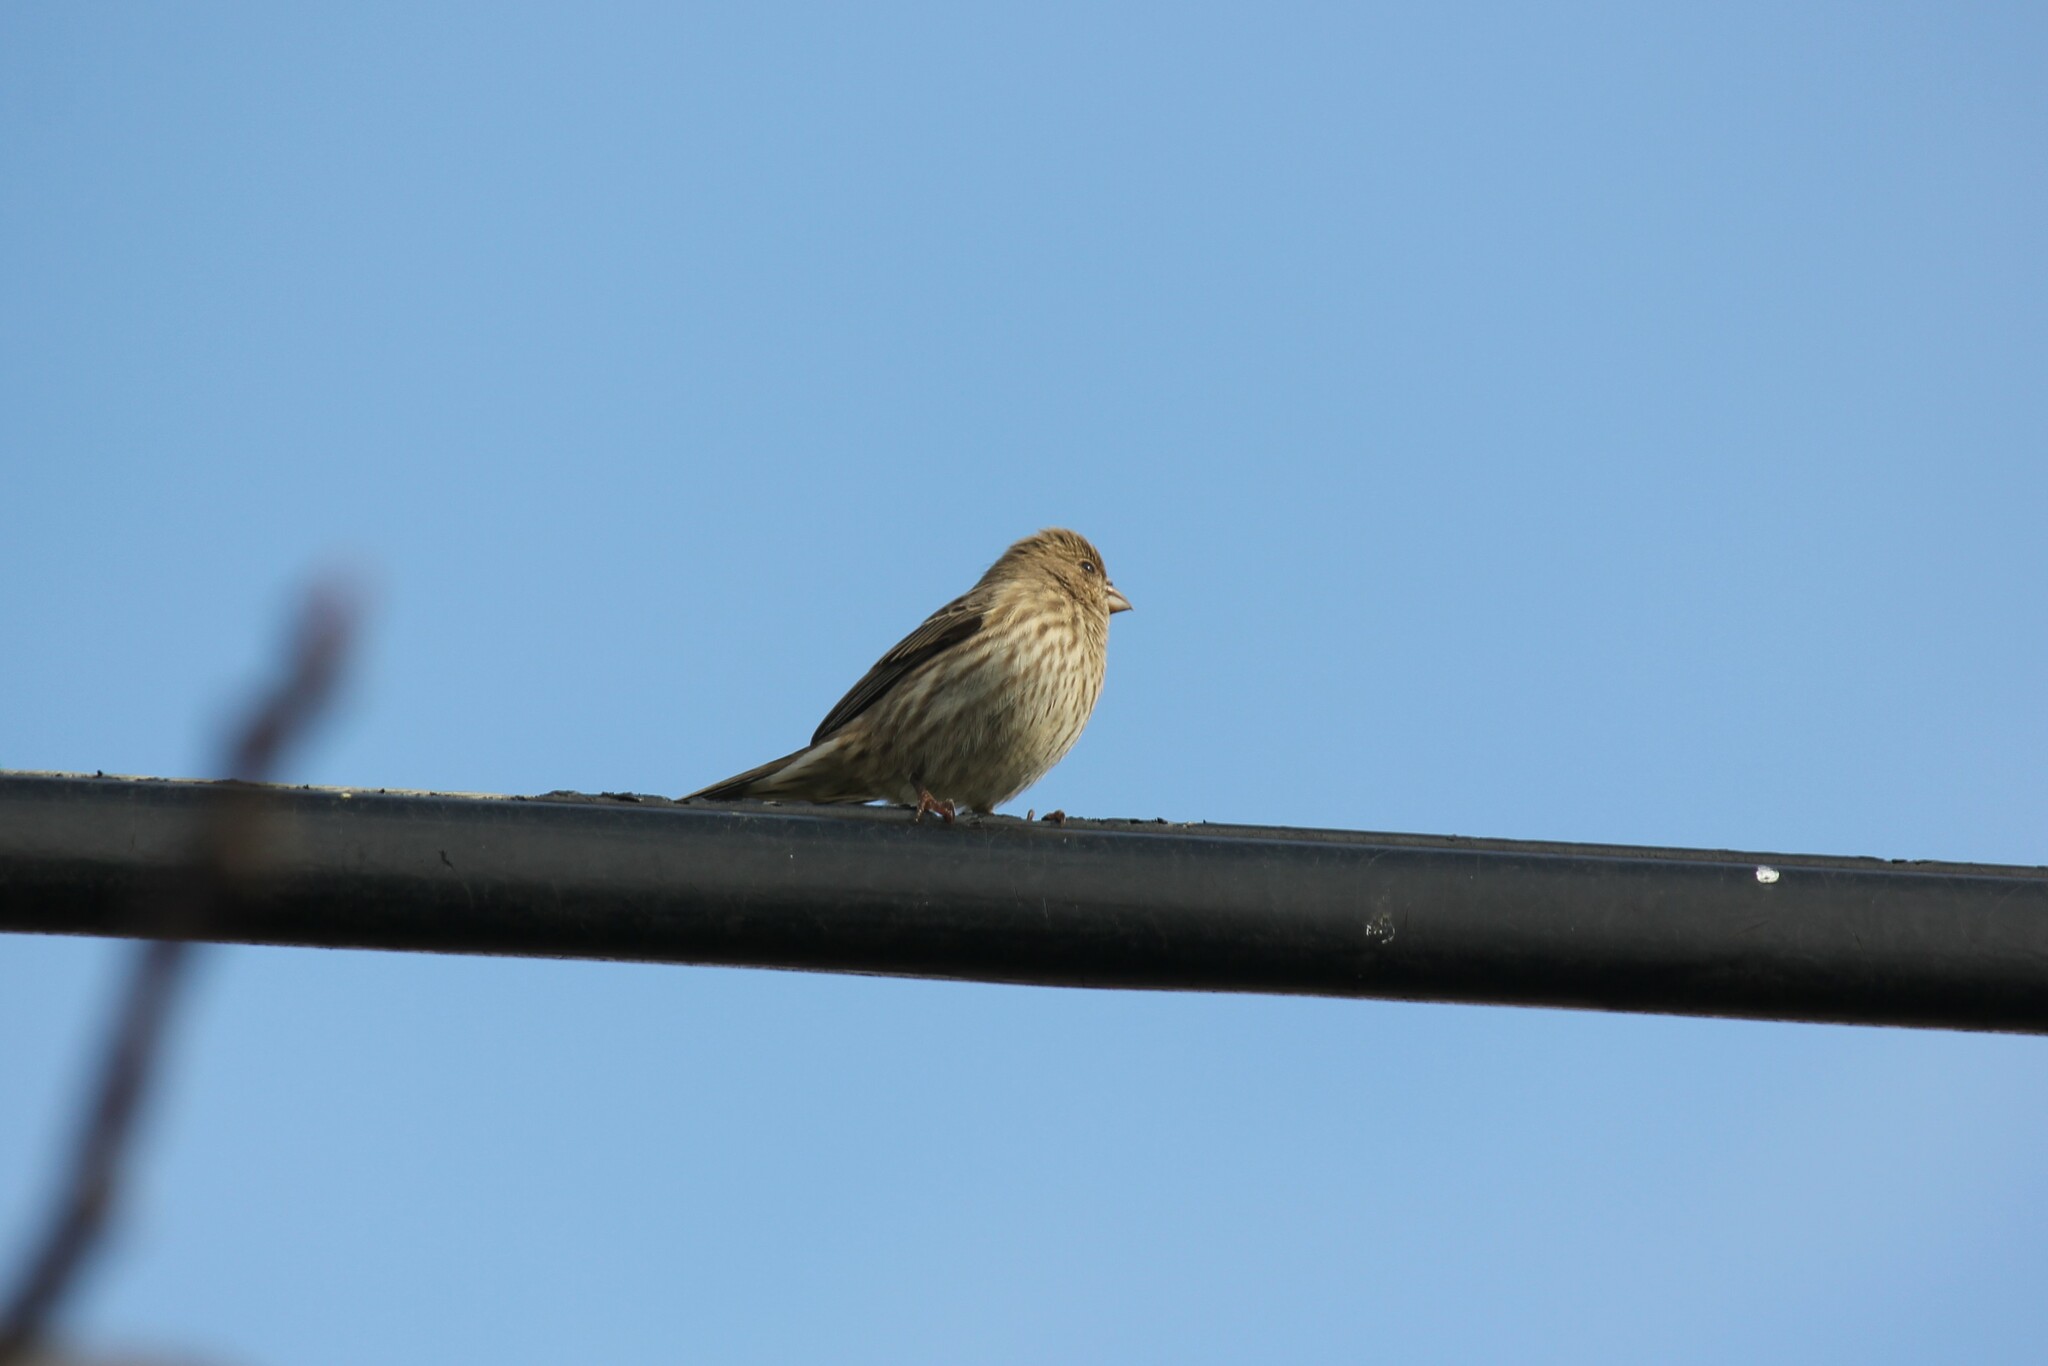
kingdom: Animalia
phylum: Chordata
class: Aves
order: Passeriformes
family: Fringillidae
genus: Haemorhous
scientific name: Haemorhous mexicanus
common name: House finch
